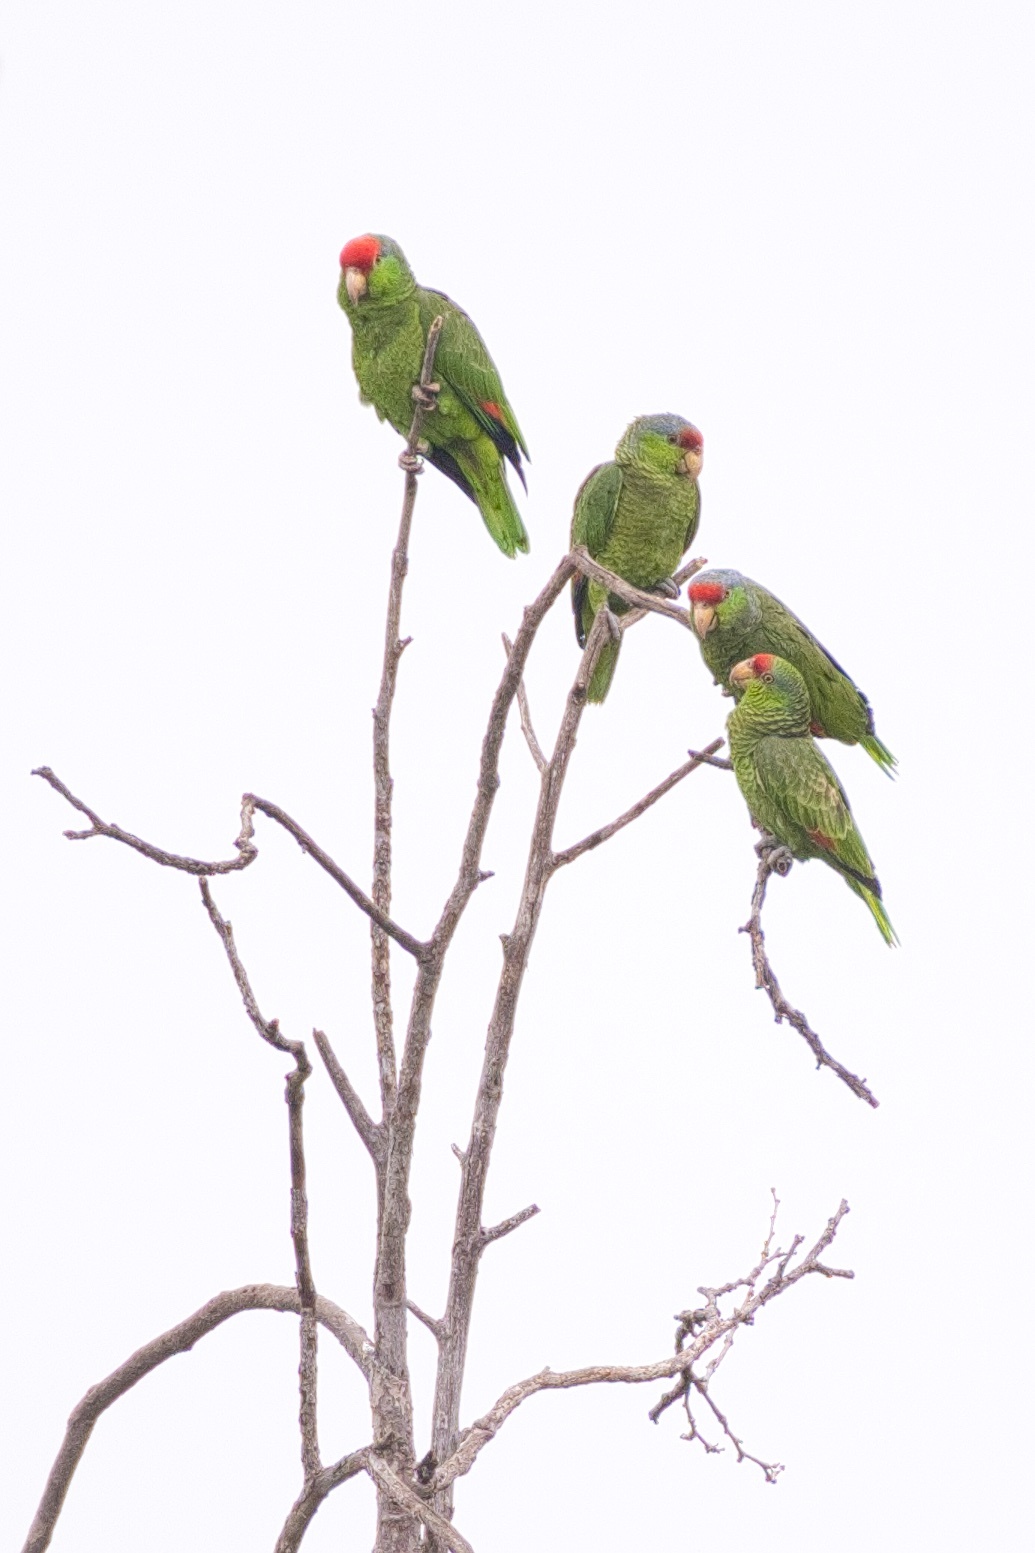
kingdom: Animalia
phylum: Chordata
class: Aves
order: Psittaciformes
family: Psittacidae
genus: Amazona
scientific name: Amazona viridigenalis
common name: Red-crowned amazon
